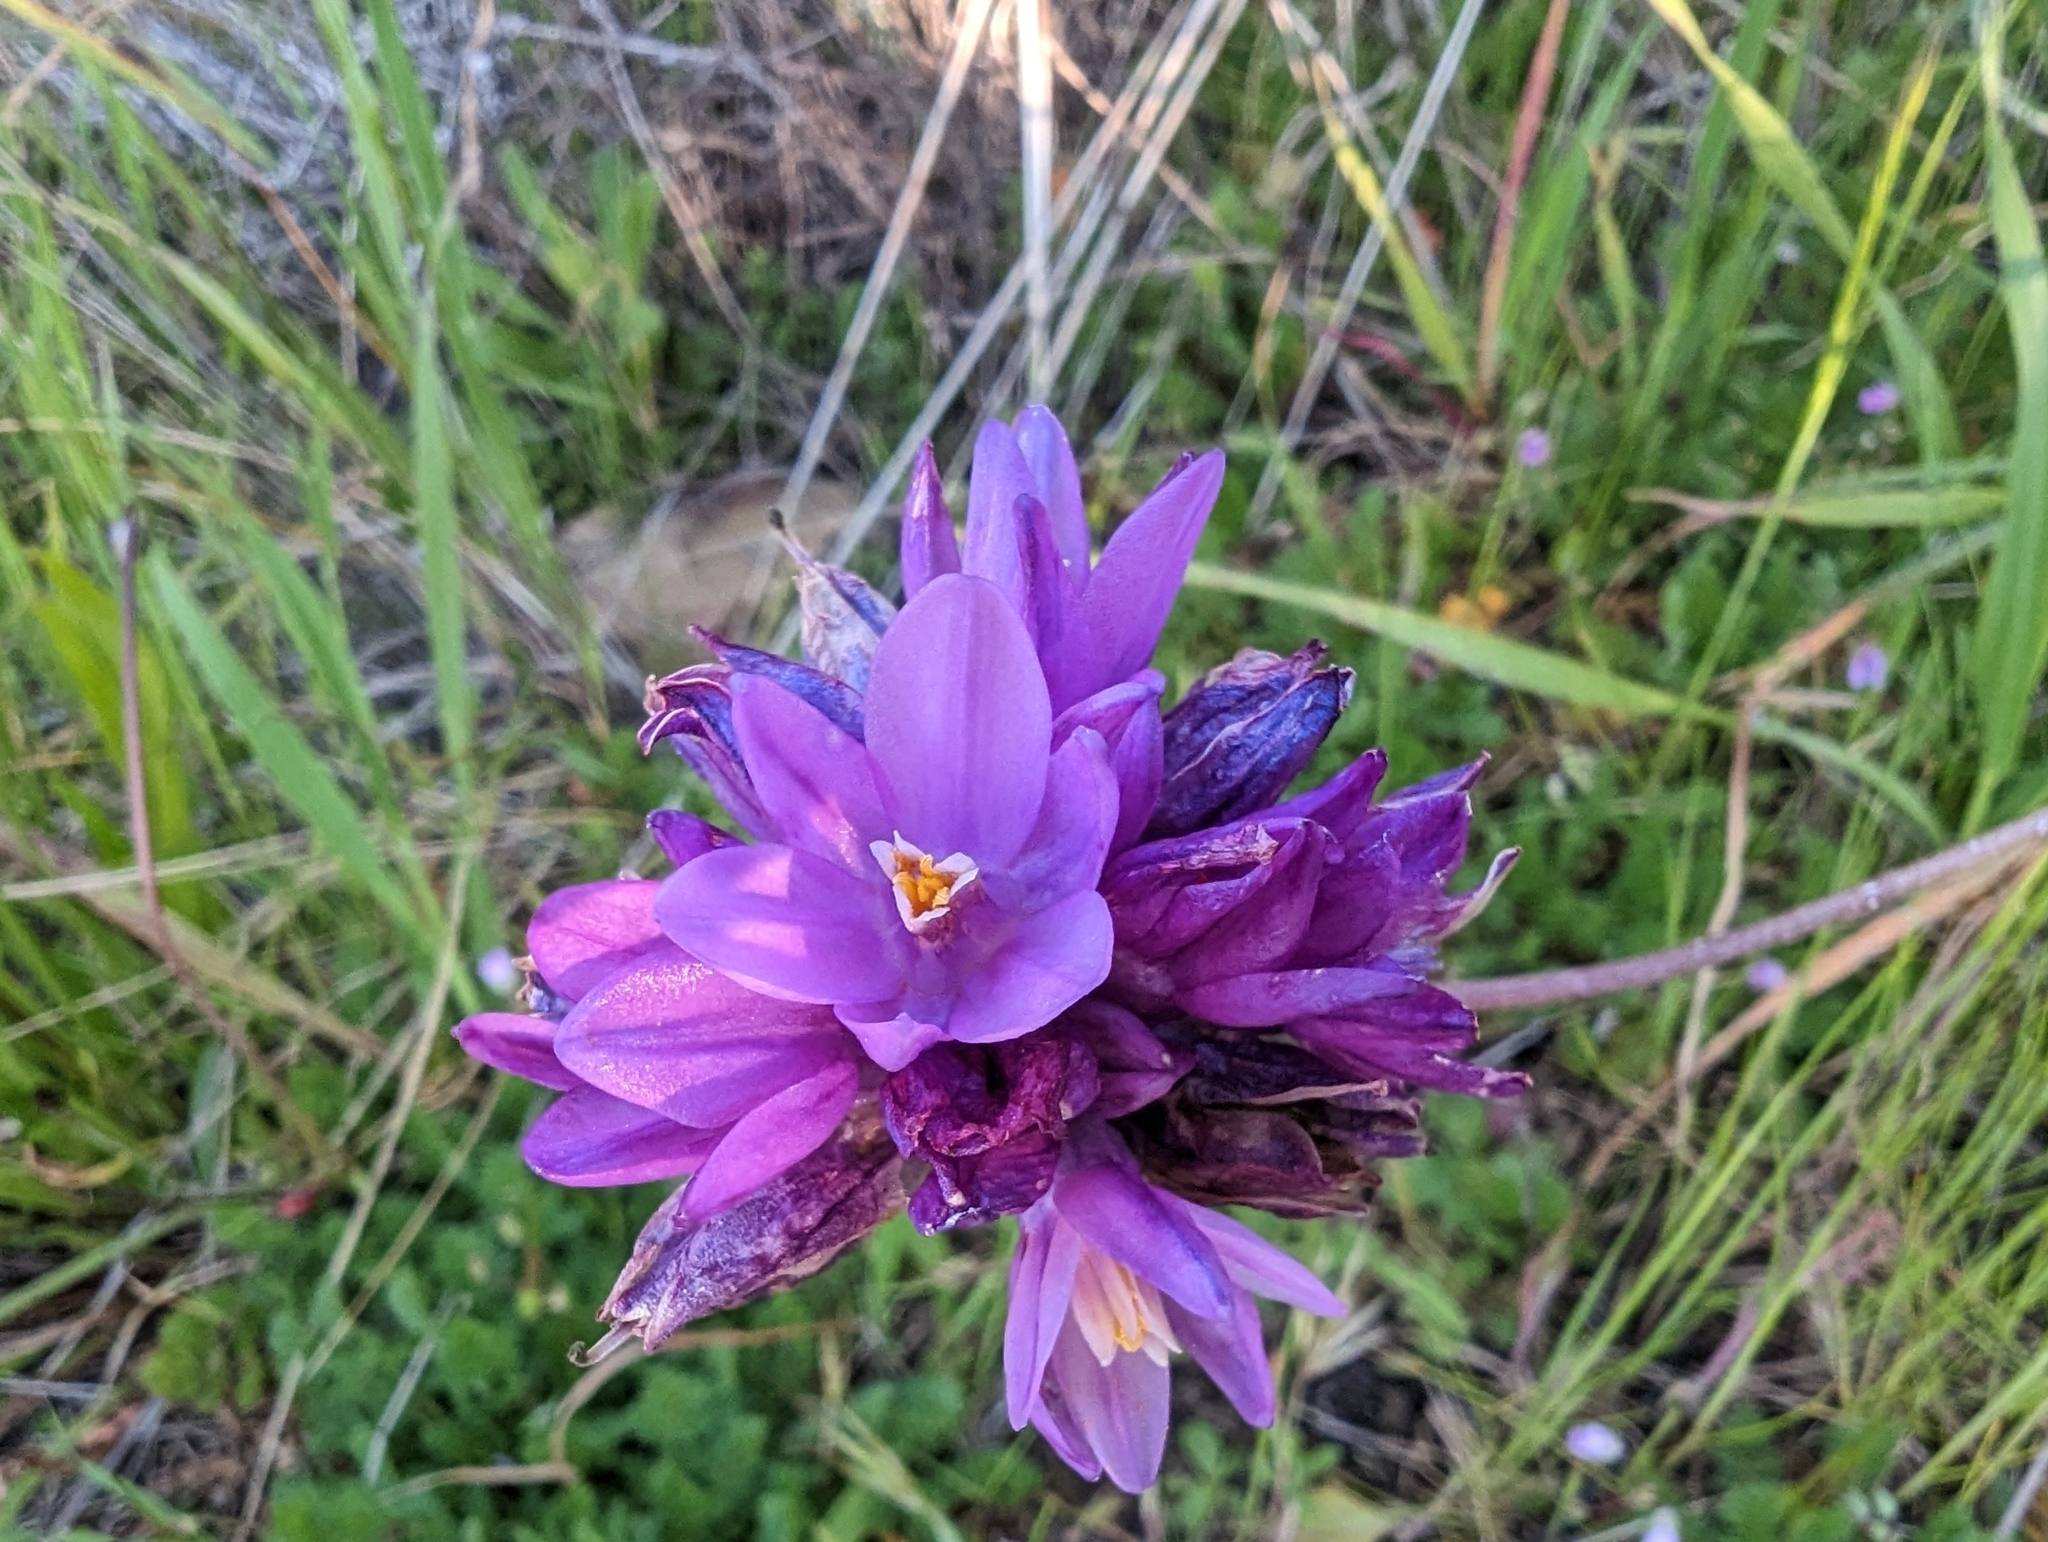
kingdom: Plantae
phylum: Tracheophyta
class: Liliopsida
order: Asparagales
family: Asparagaceae
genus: Dipterostemon
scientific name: Dipterostemon capitatus
